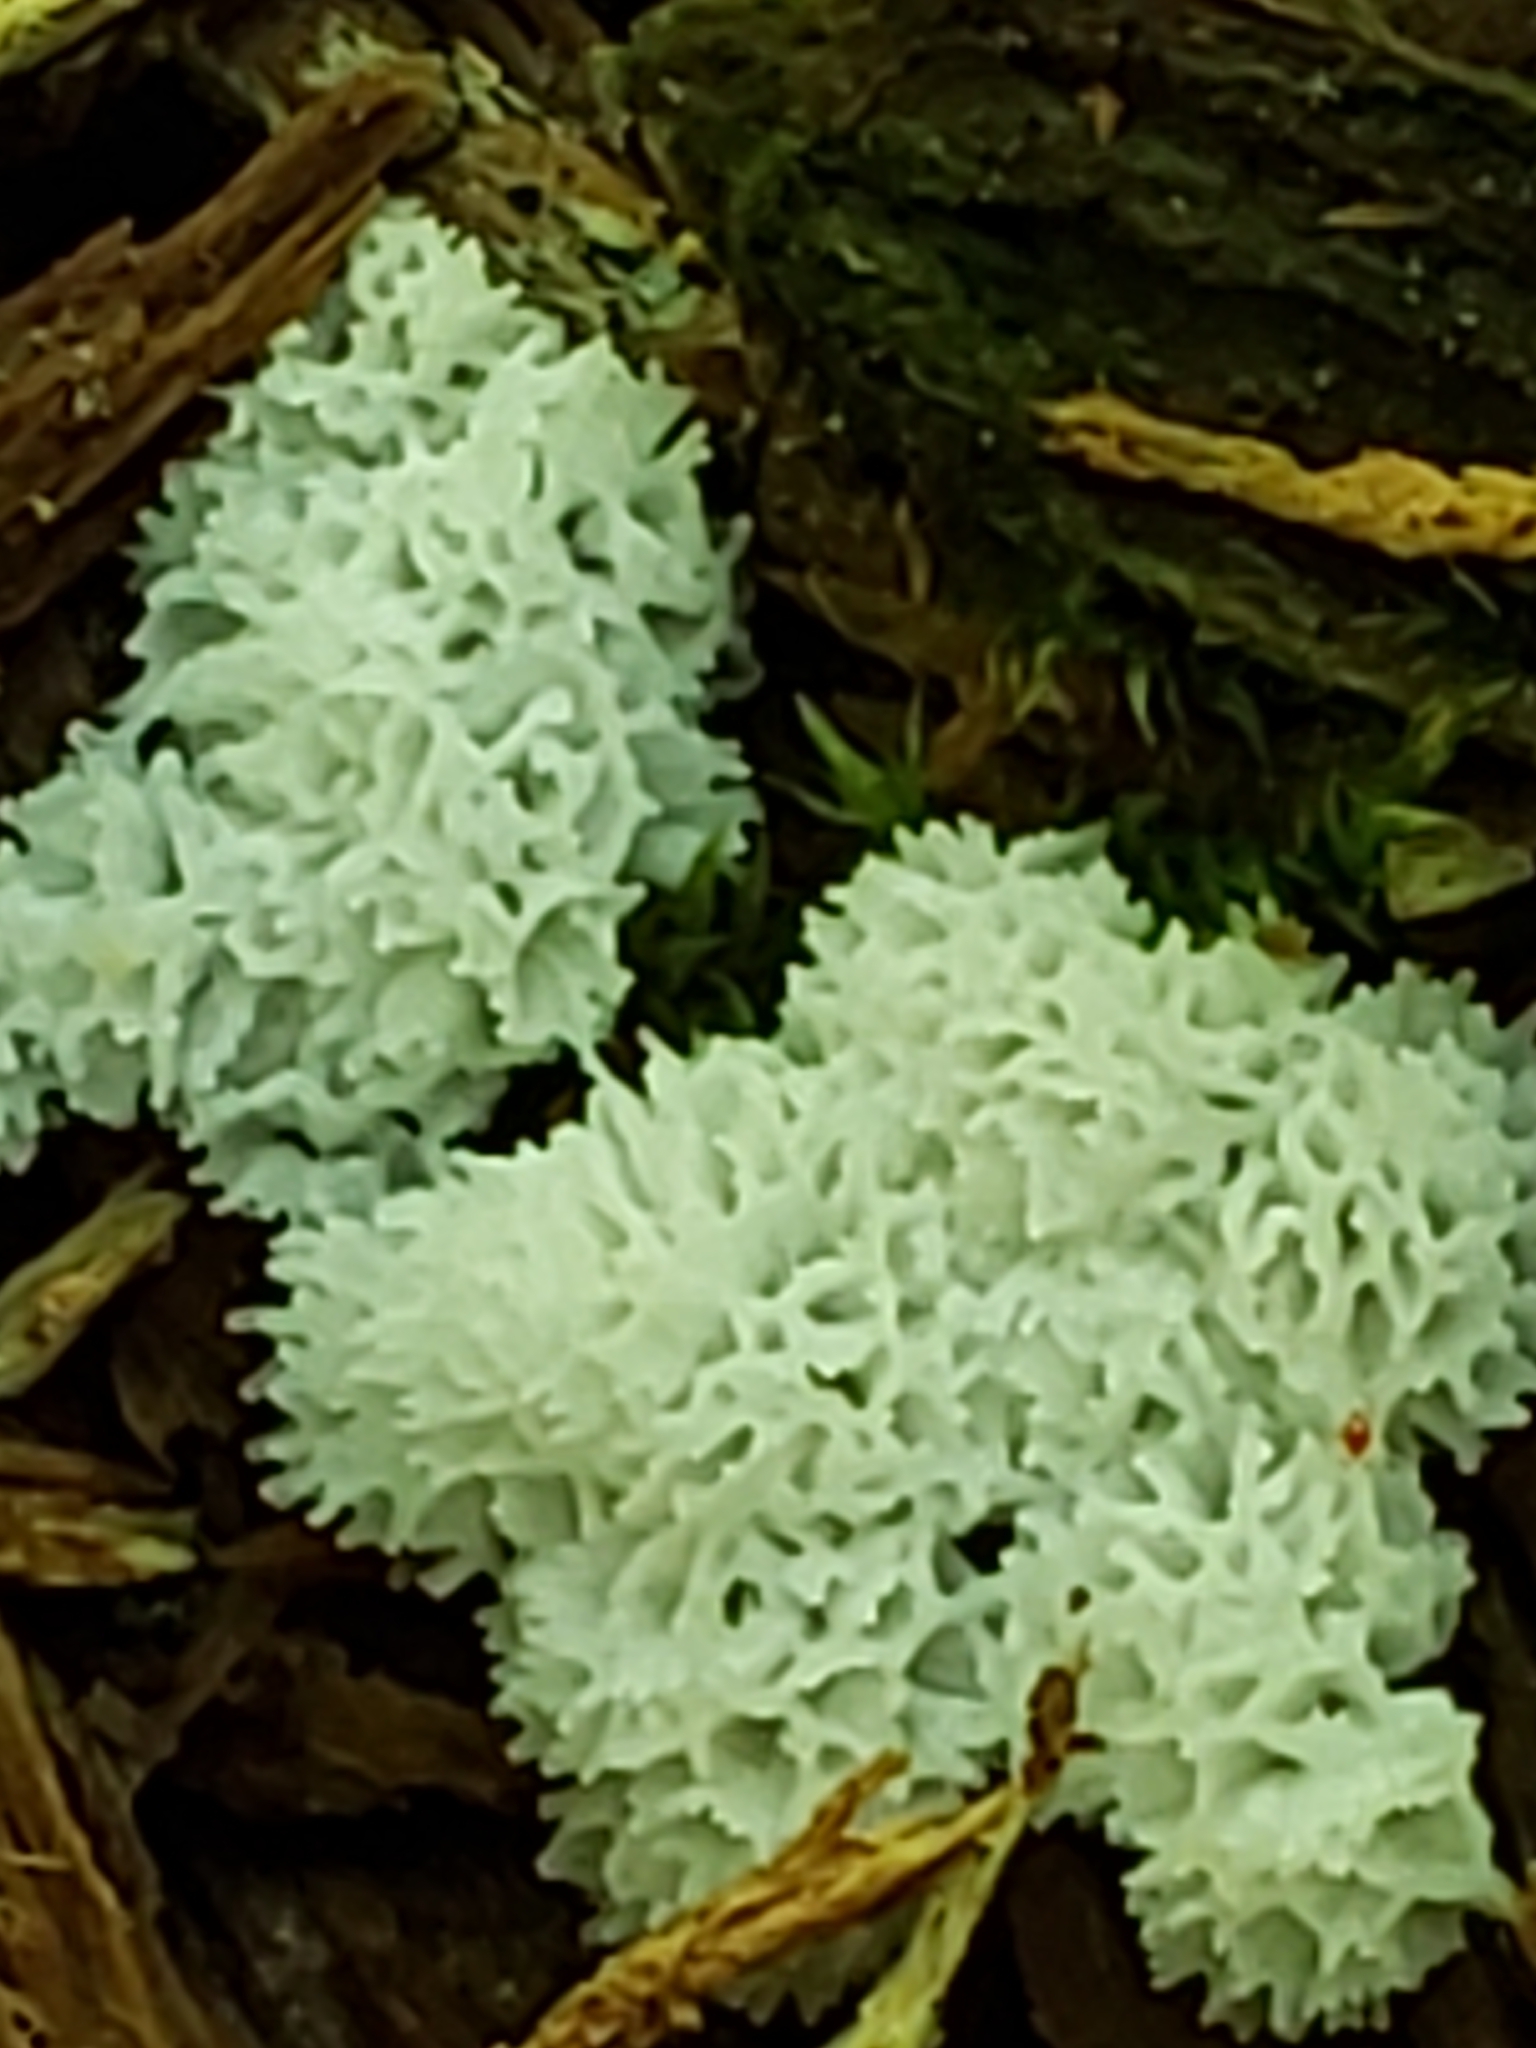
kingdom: Protozoa
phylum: Mycetozoa
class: Protosteliomycetes
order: Ceratiomyxales
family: Ceratiomyxaceae
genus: Ceratiomyxa
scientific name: Ceratiomyxa fruticulosa
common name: Honeycomb coral slime mold
